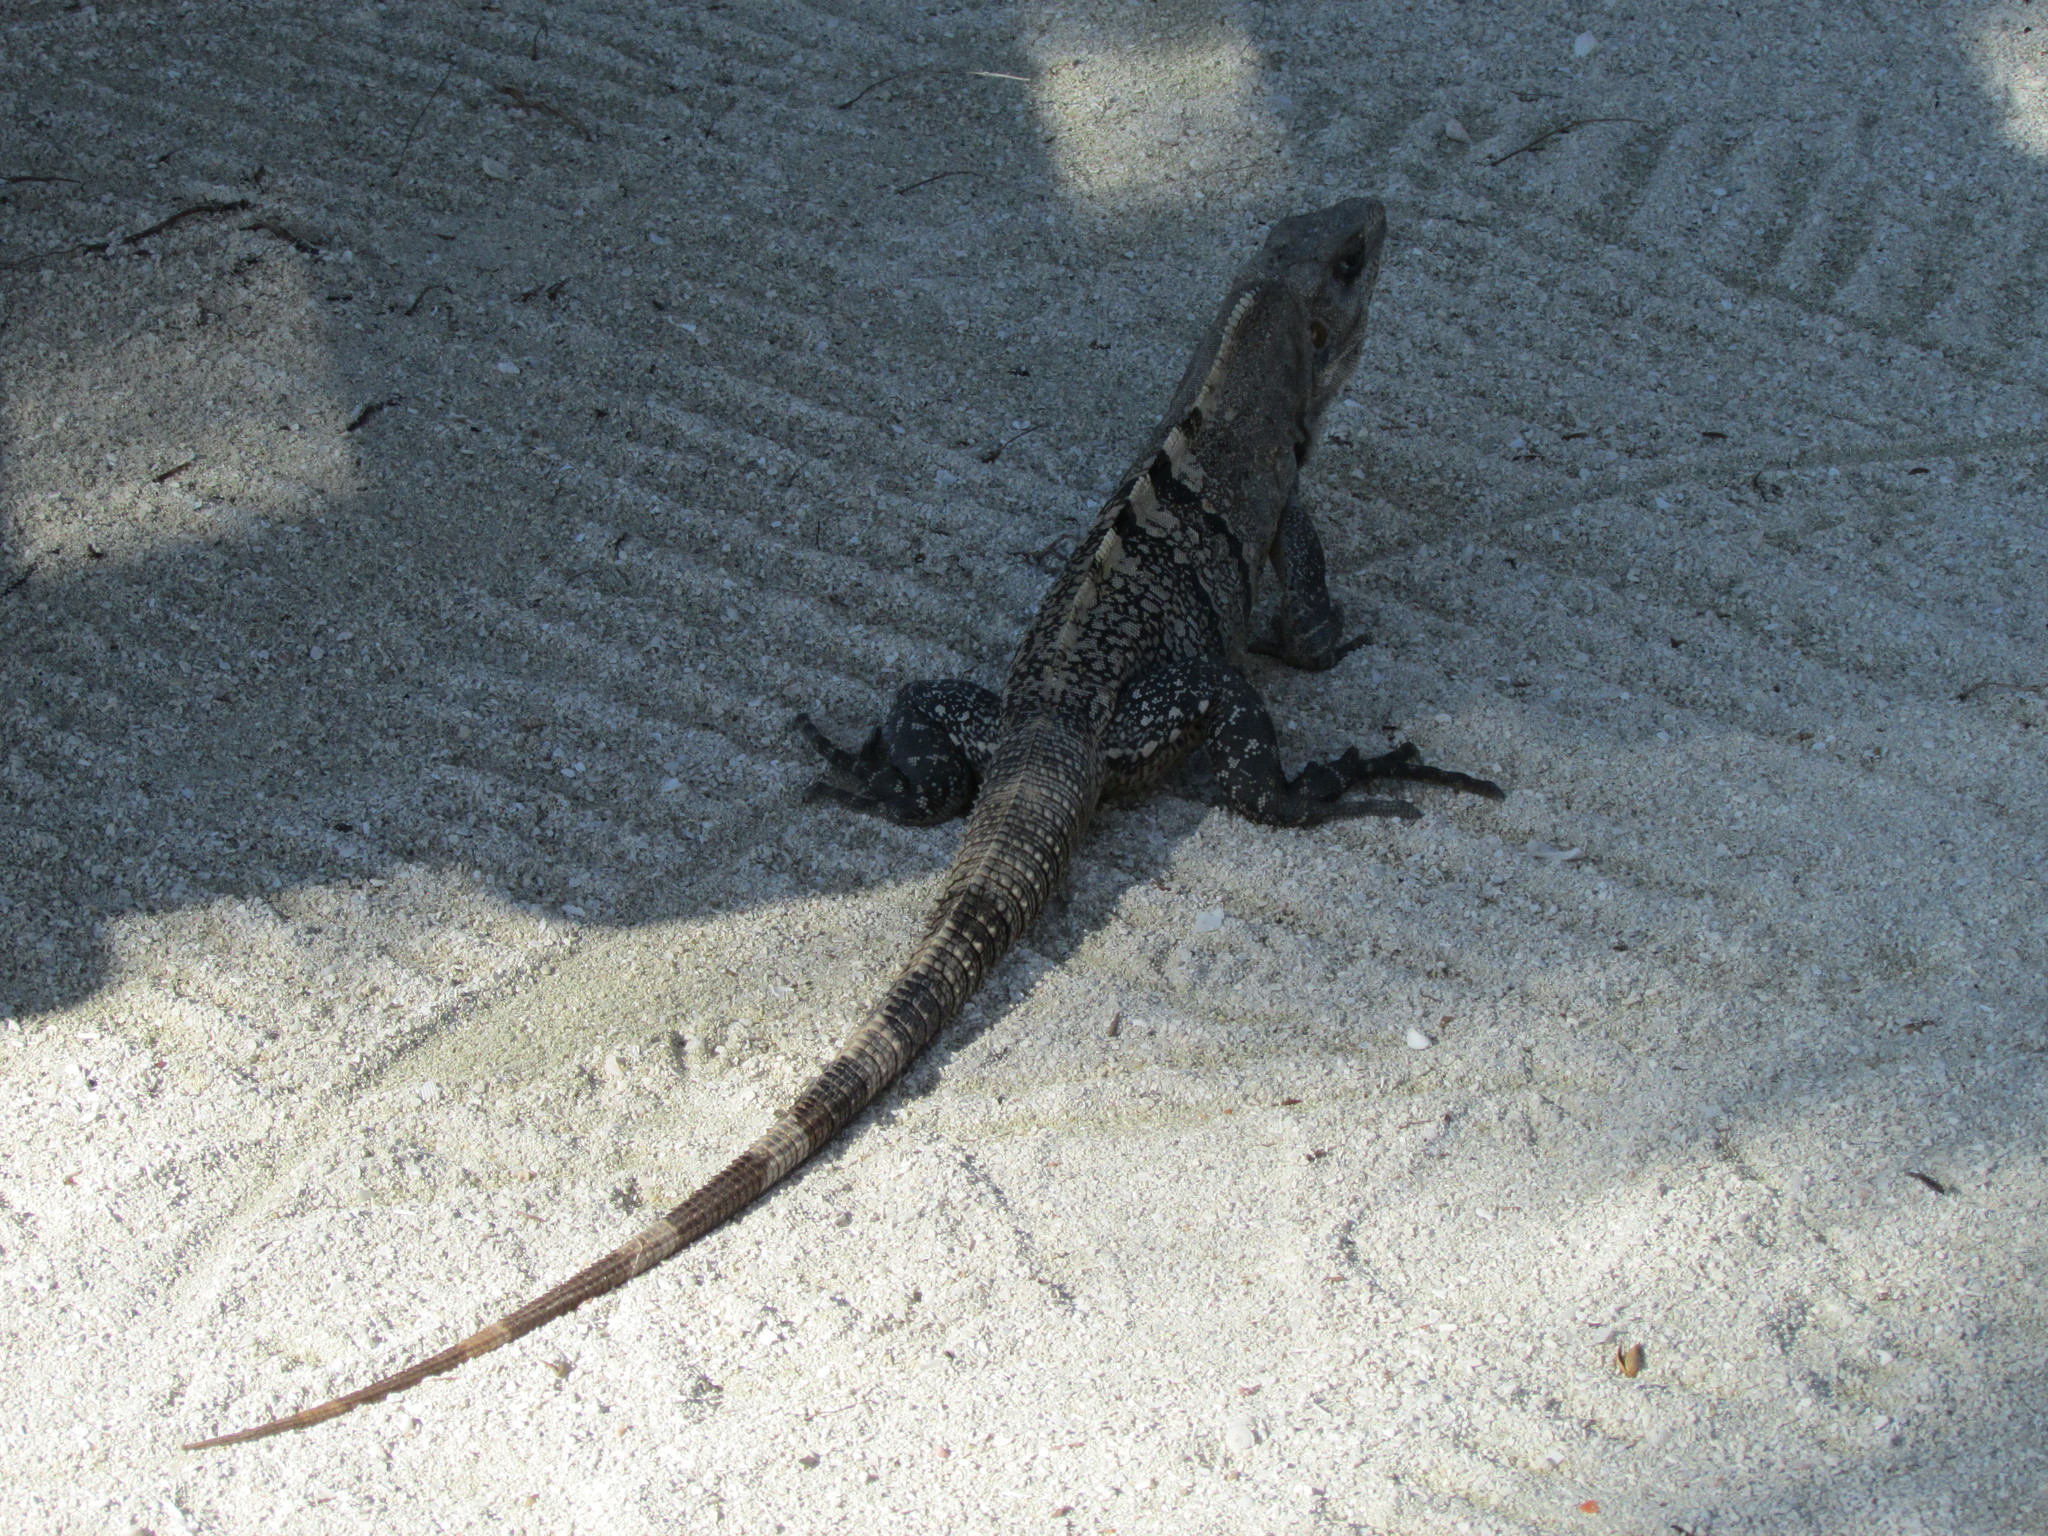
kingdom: Animalia
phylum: Chordata
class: Squamata
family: Iguanidae
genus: Ctenosaura
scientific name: Ctenosaura similis
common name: Black spiny-tailed iguana
